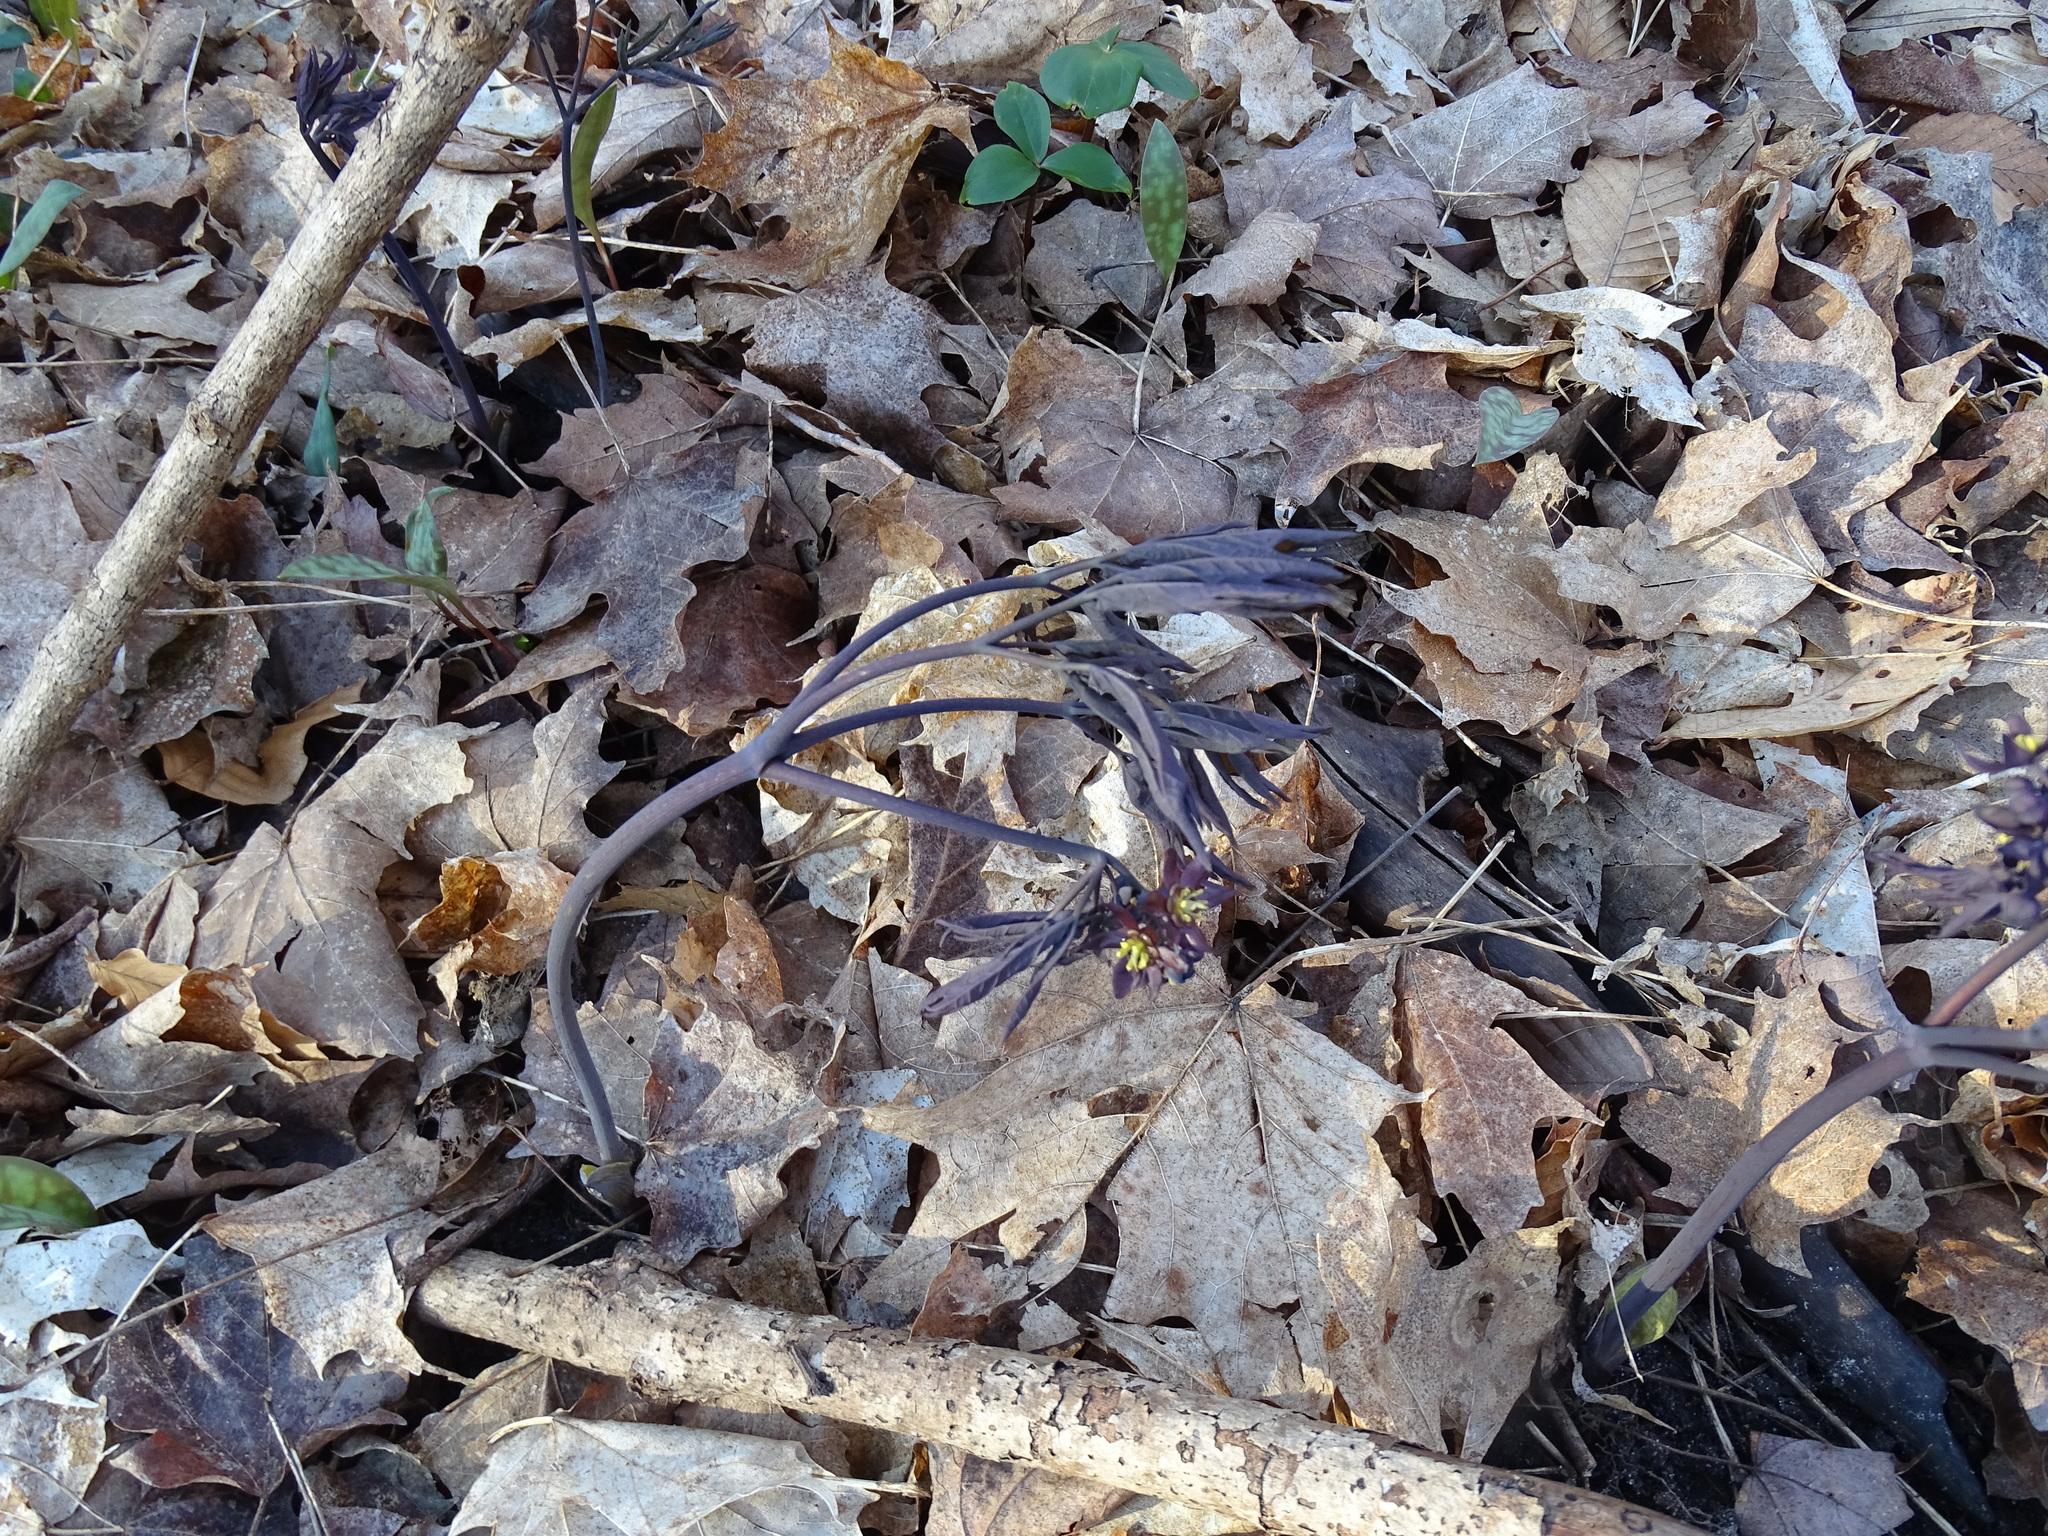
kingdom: Plantae
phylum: Tracheophyta
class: Magnoliopsida
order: Ranunculales
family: Berberidaceae
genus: Caulophyllum
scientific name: Caulophyllum giganteum
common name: Blue cohosh
